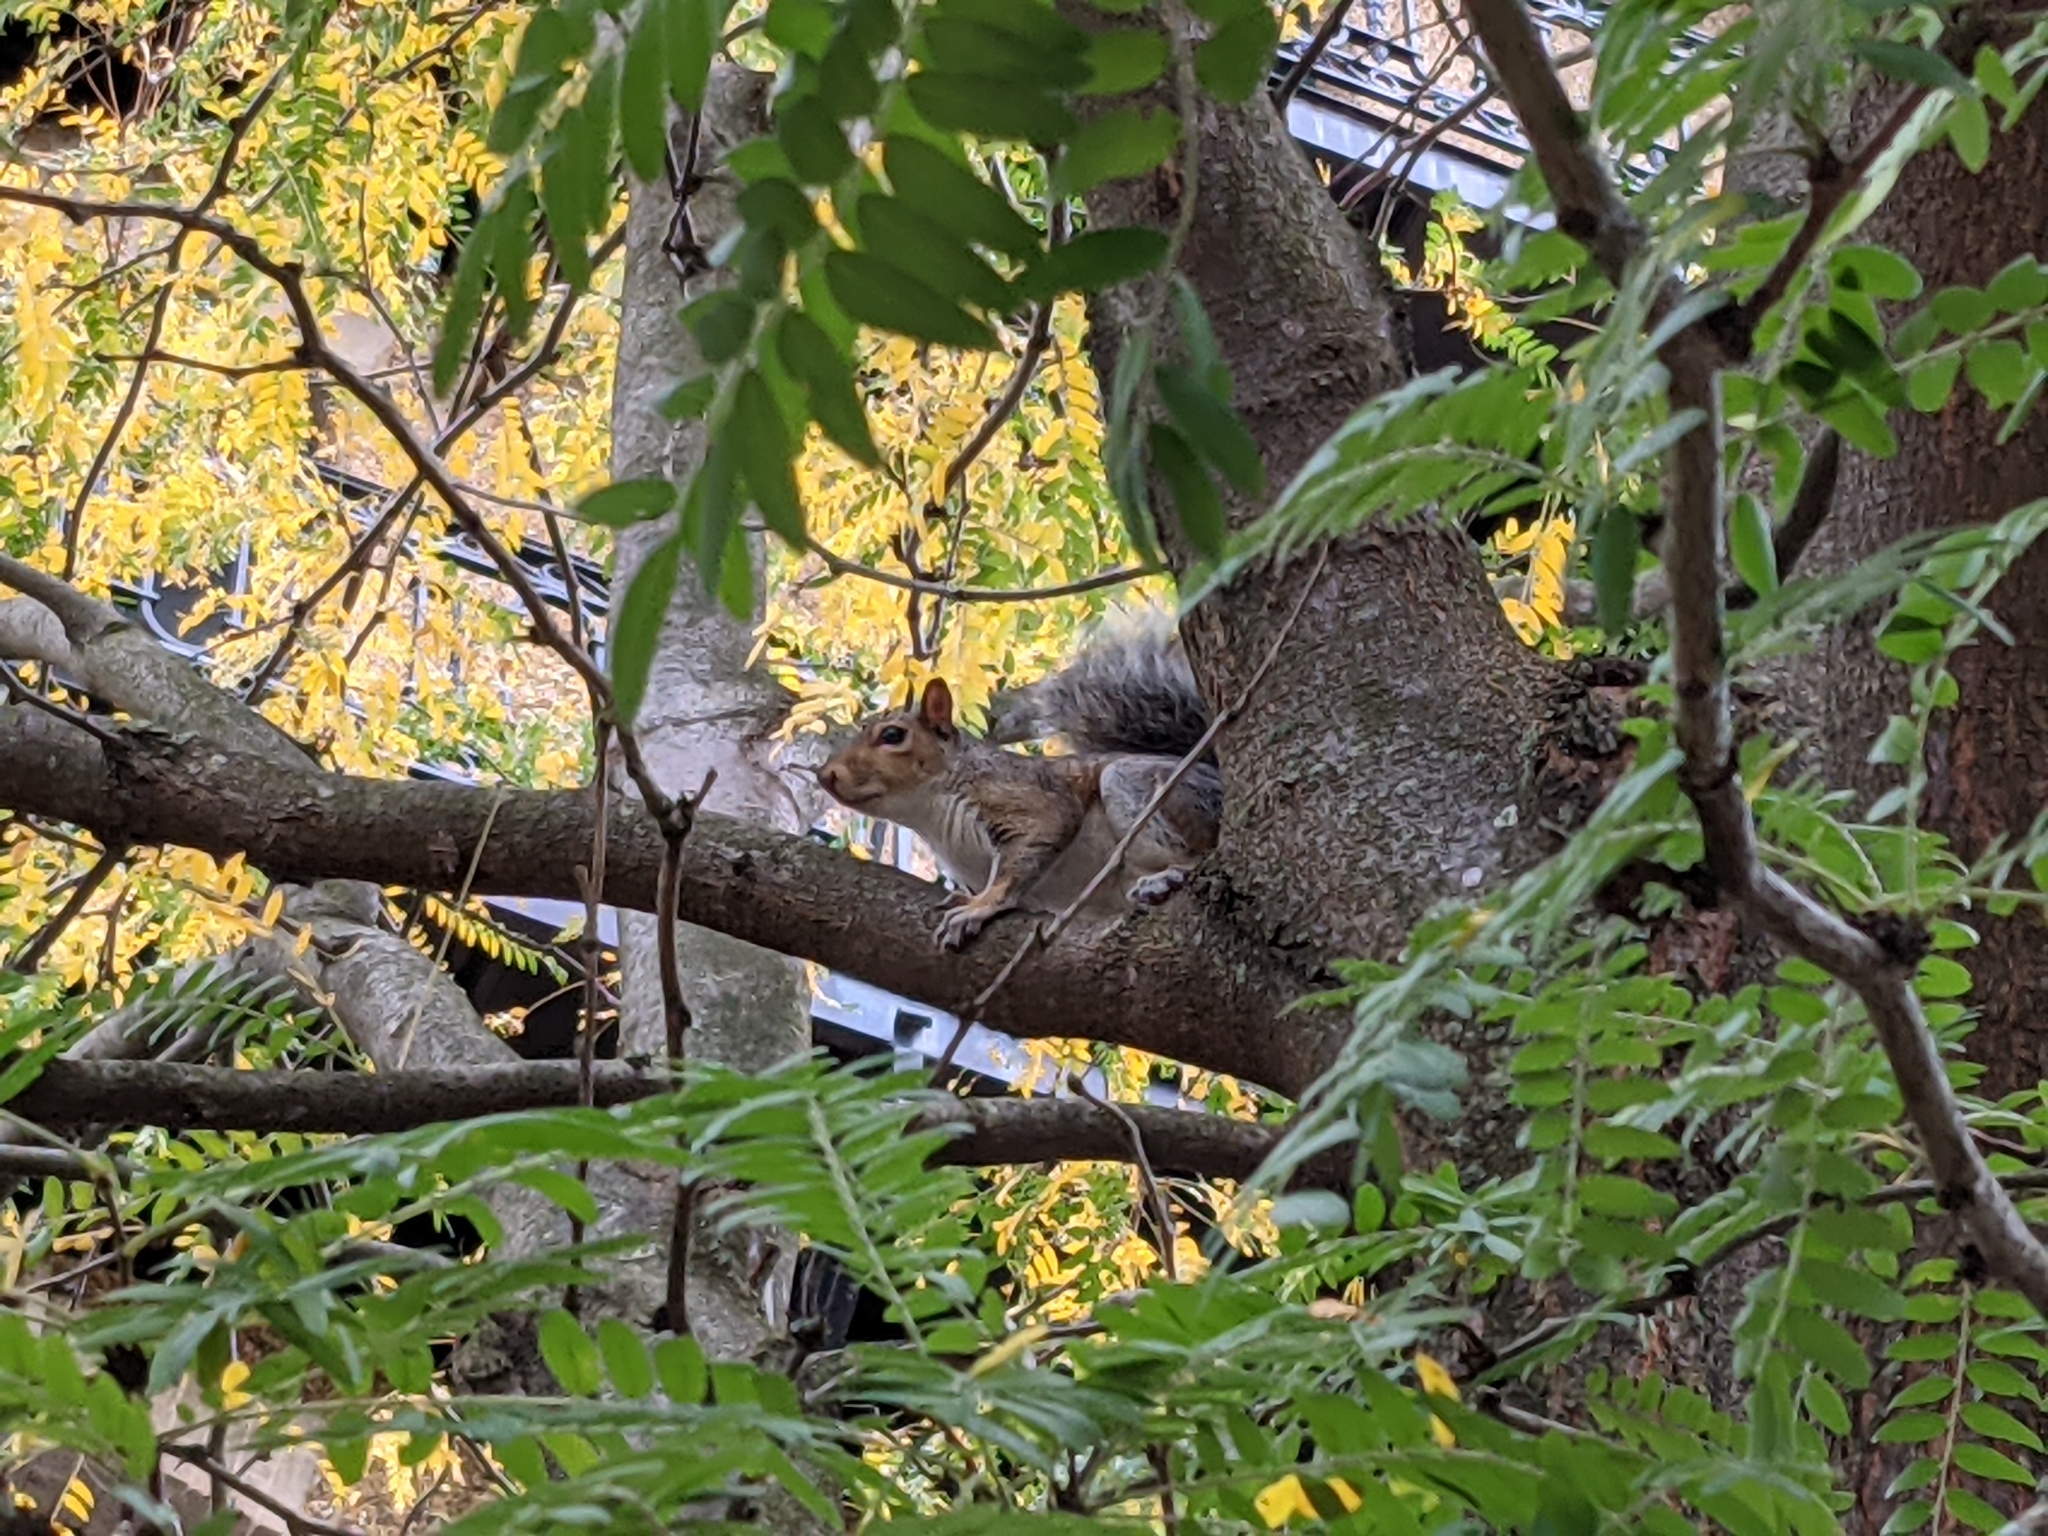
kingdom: Animalia
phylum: Chordata
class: Mammalia
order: Rodentia
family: Sciuridae
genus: Sciurus
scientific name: Sciurus carolinensis
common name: Eastern gray squirrel
